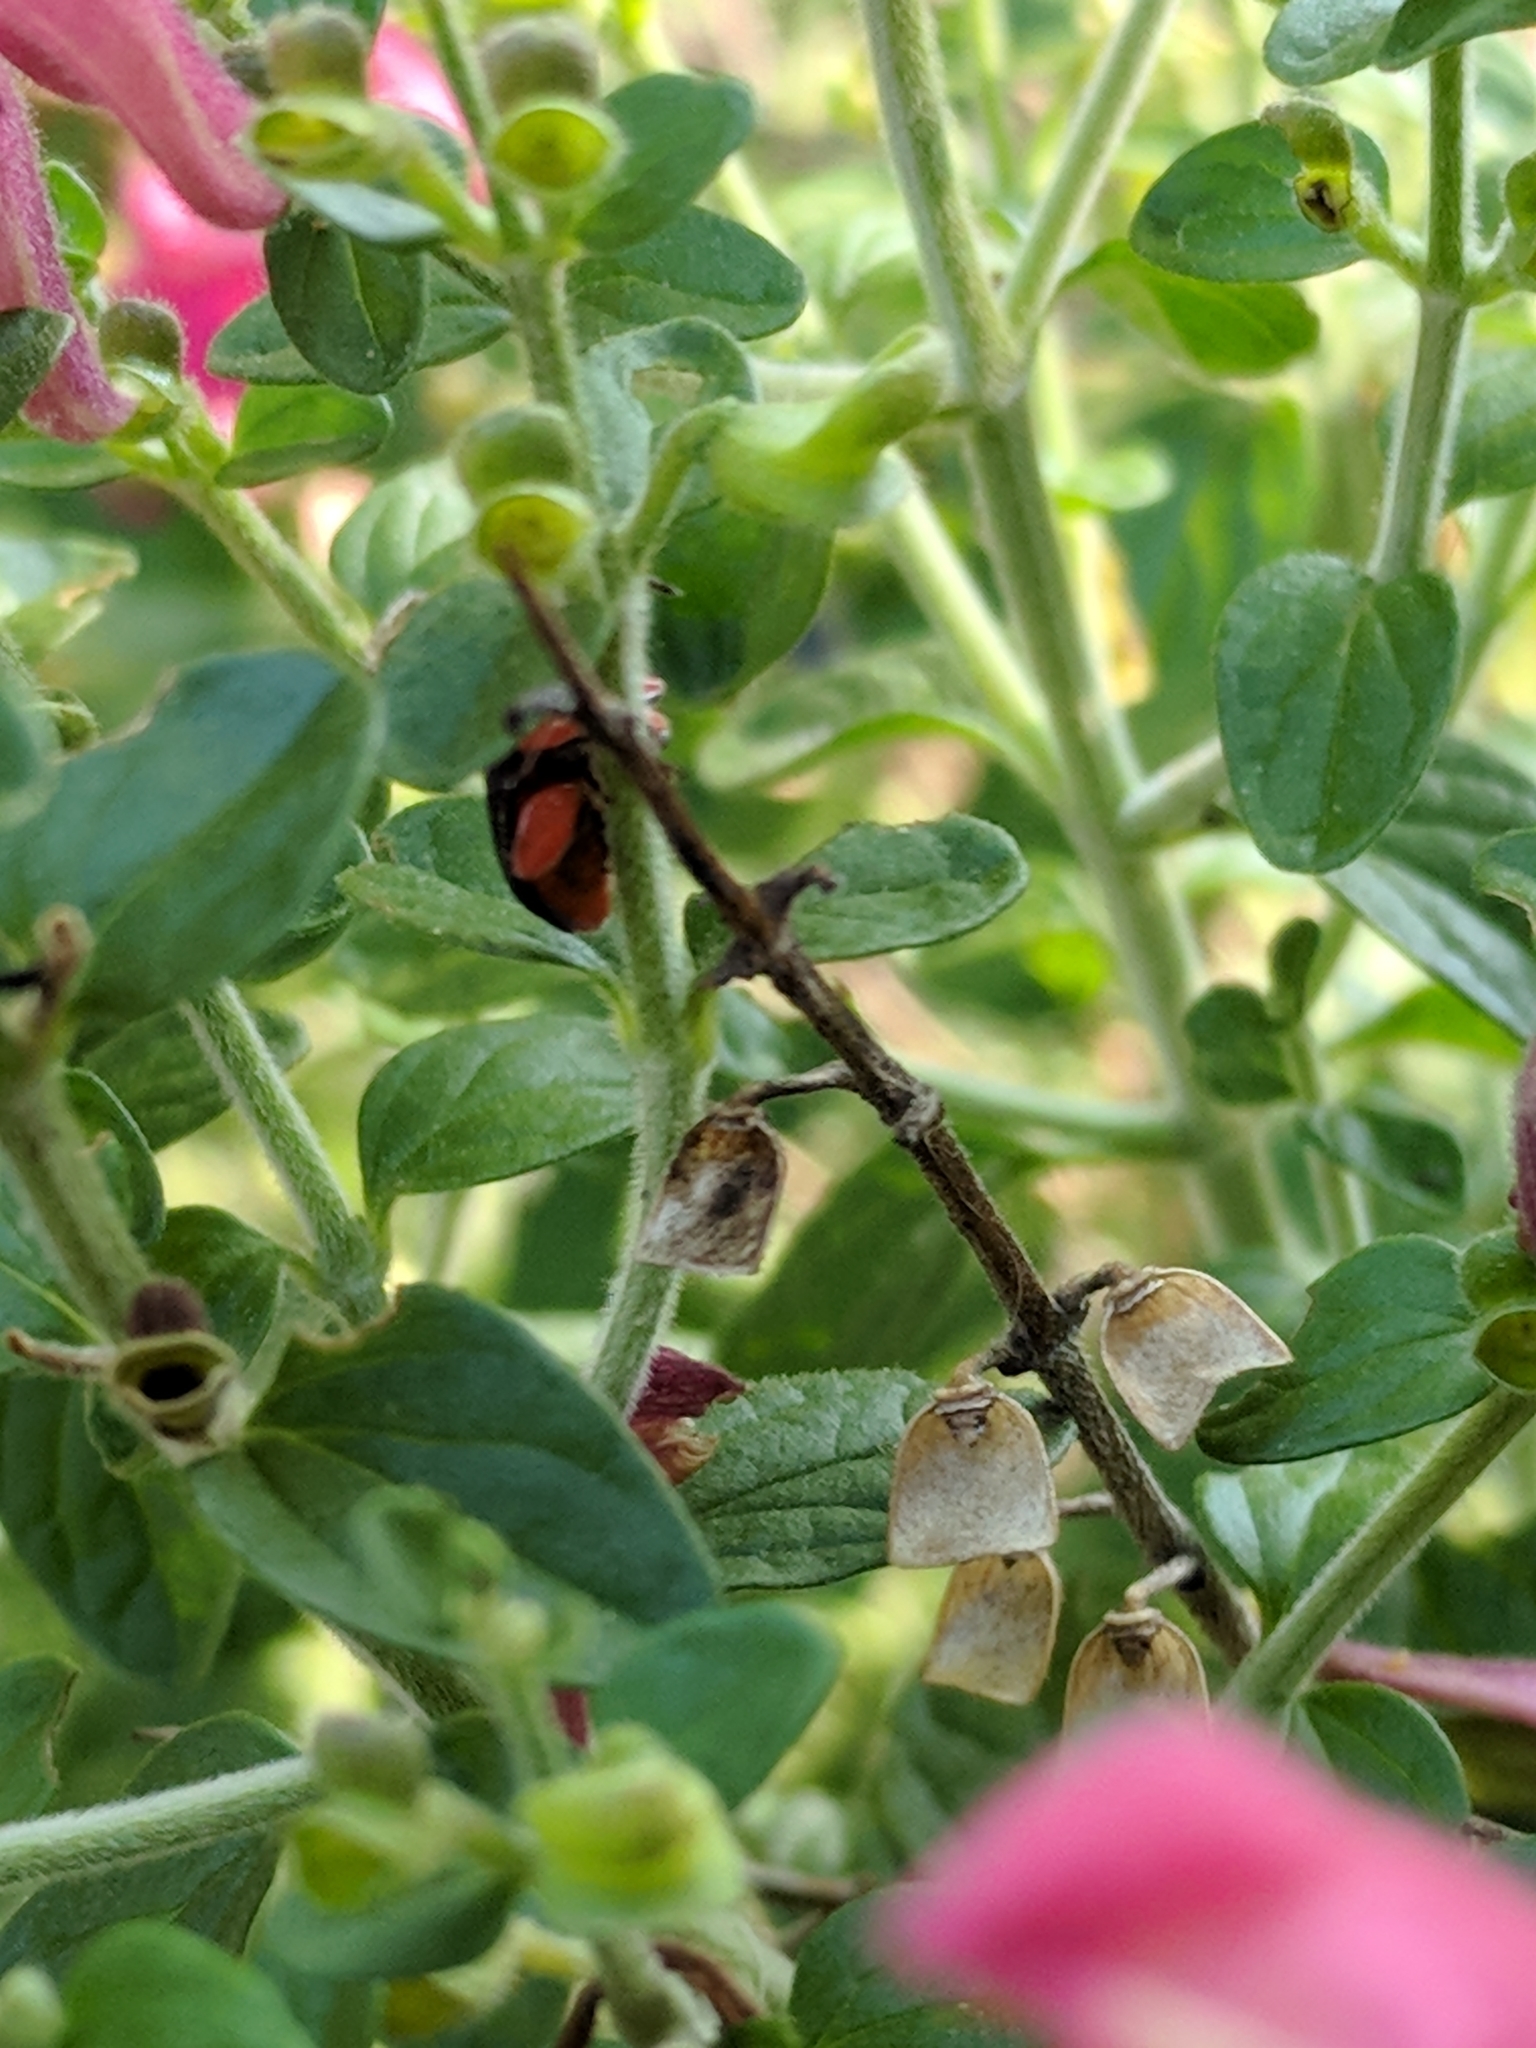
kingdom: Animalia
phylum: Arthropoda
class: Insecta
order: Coleoptera
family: Chrysomelidae
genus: Asphaera
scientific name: Asphaera lustrans
